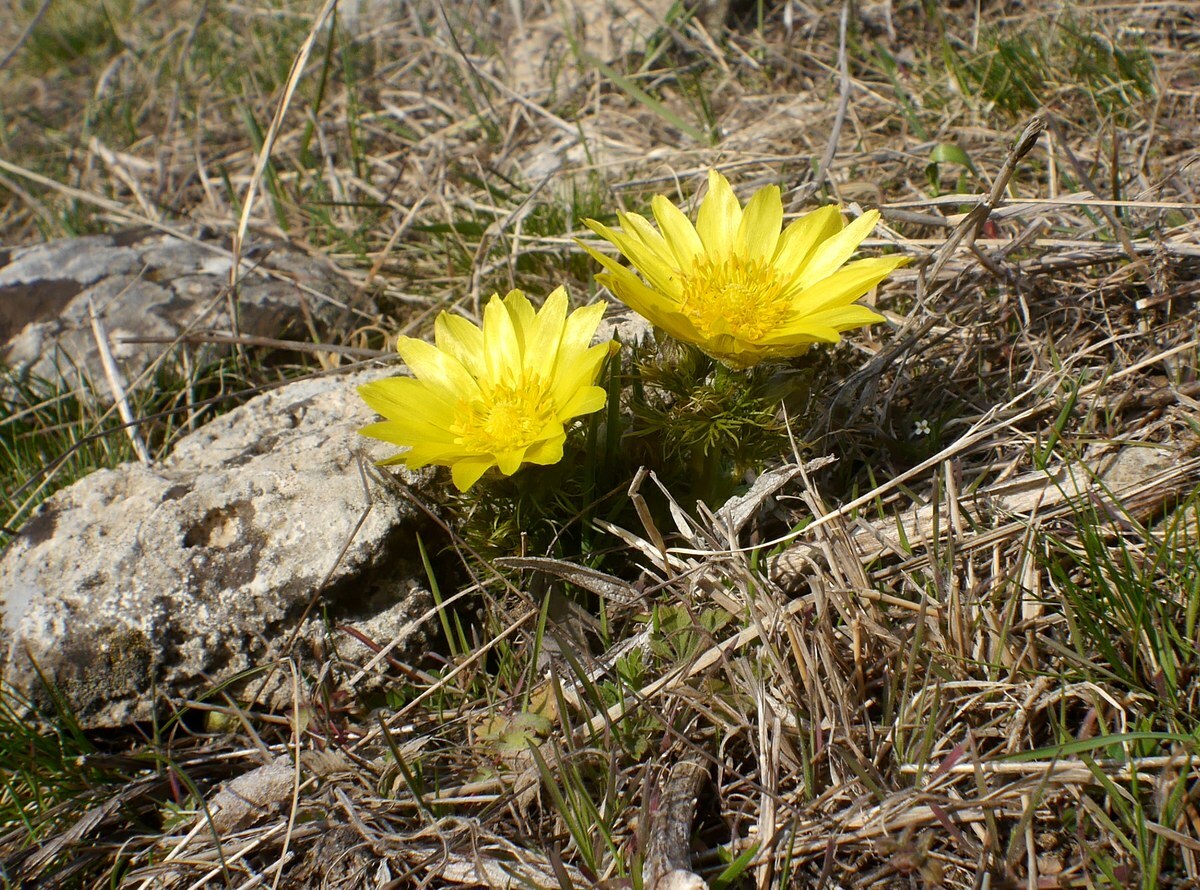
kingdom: Plantae
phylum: Tracheophyta
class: Magnoliopsida
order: Ranunculales
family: Ranunculaceae
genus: Adonis
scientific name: Adonis vernalis
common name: Yellow pheasants-eye
